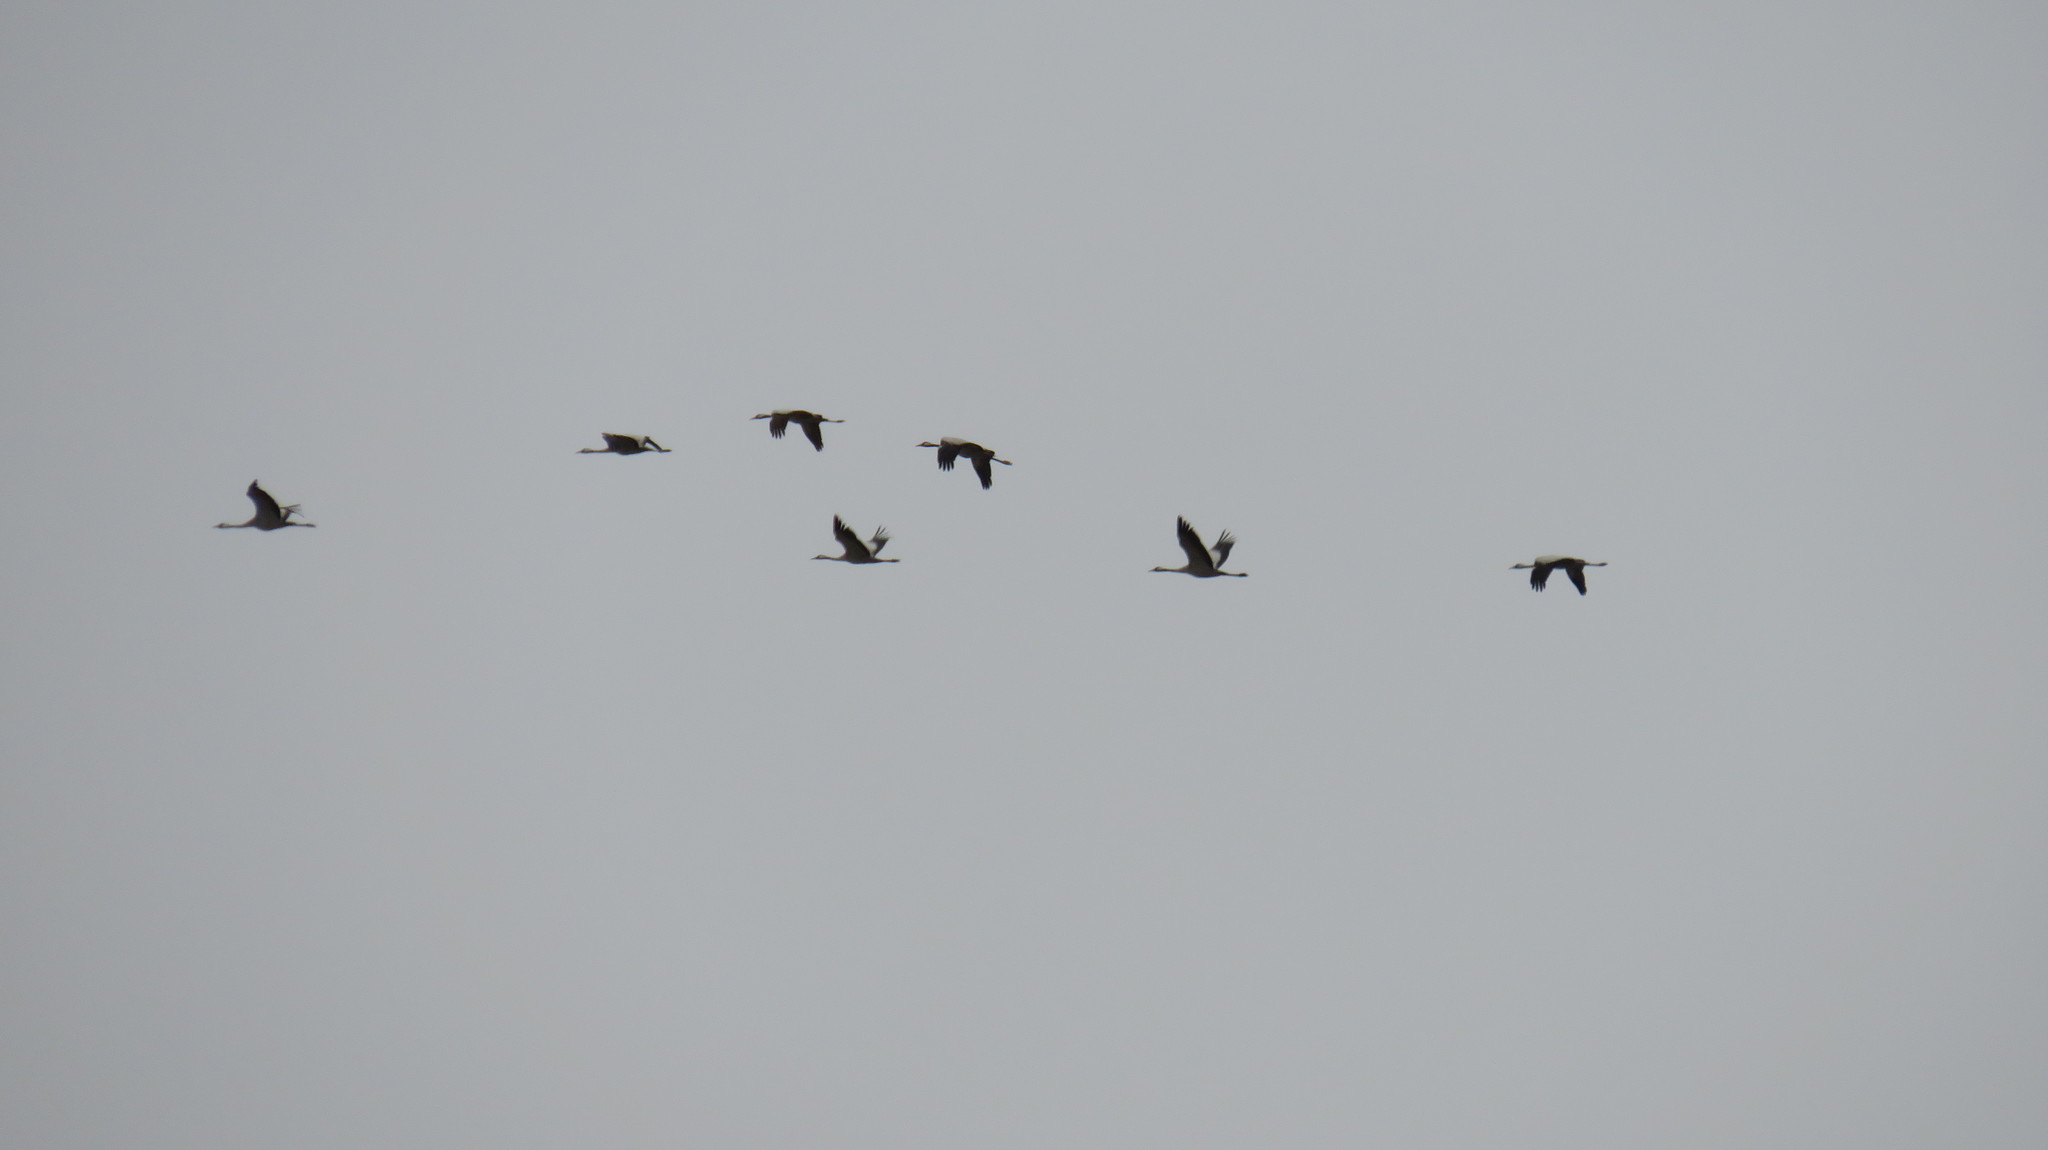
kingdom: Animalia
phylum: Chordata
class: Aves
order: Gruiformes
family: Gruidae
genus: Grus
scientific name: Grus grus
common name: Common crane
